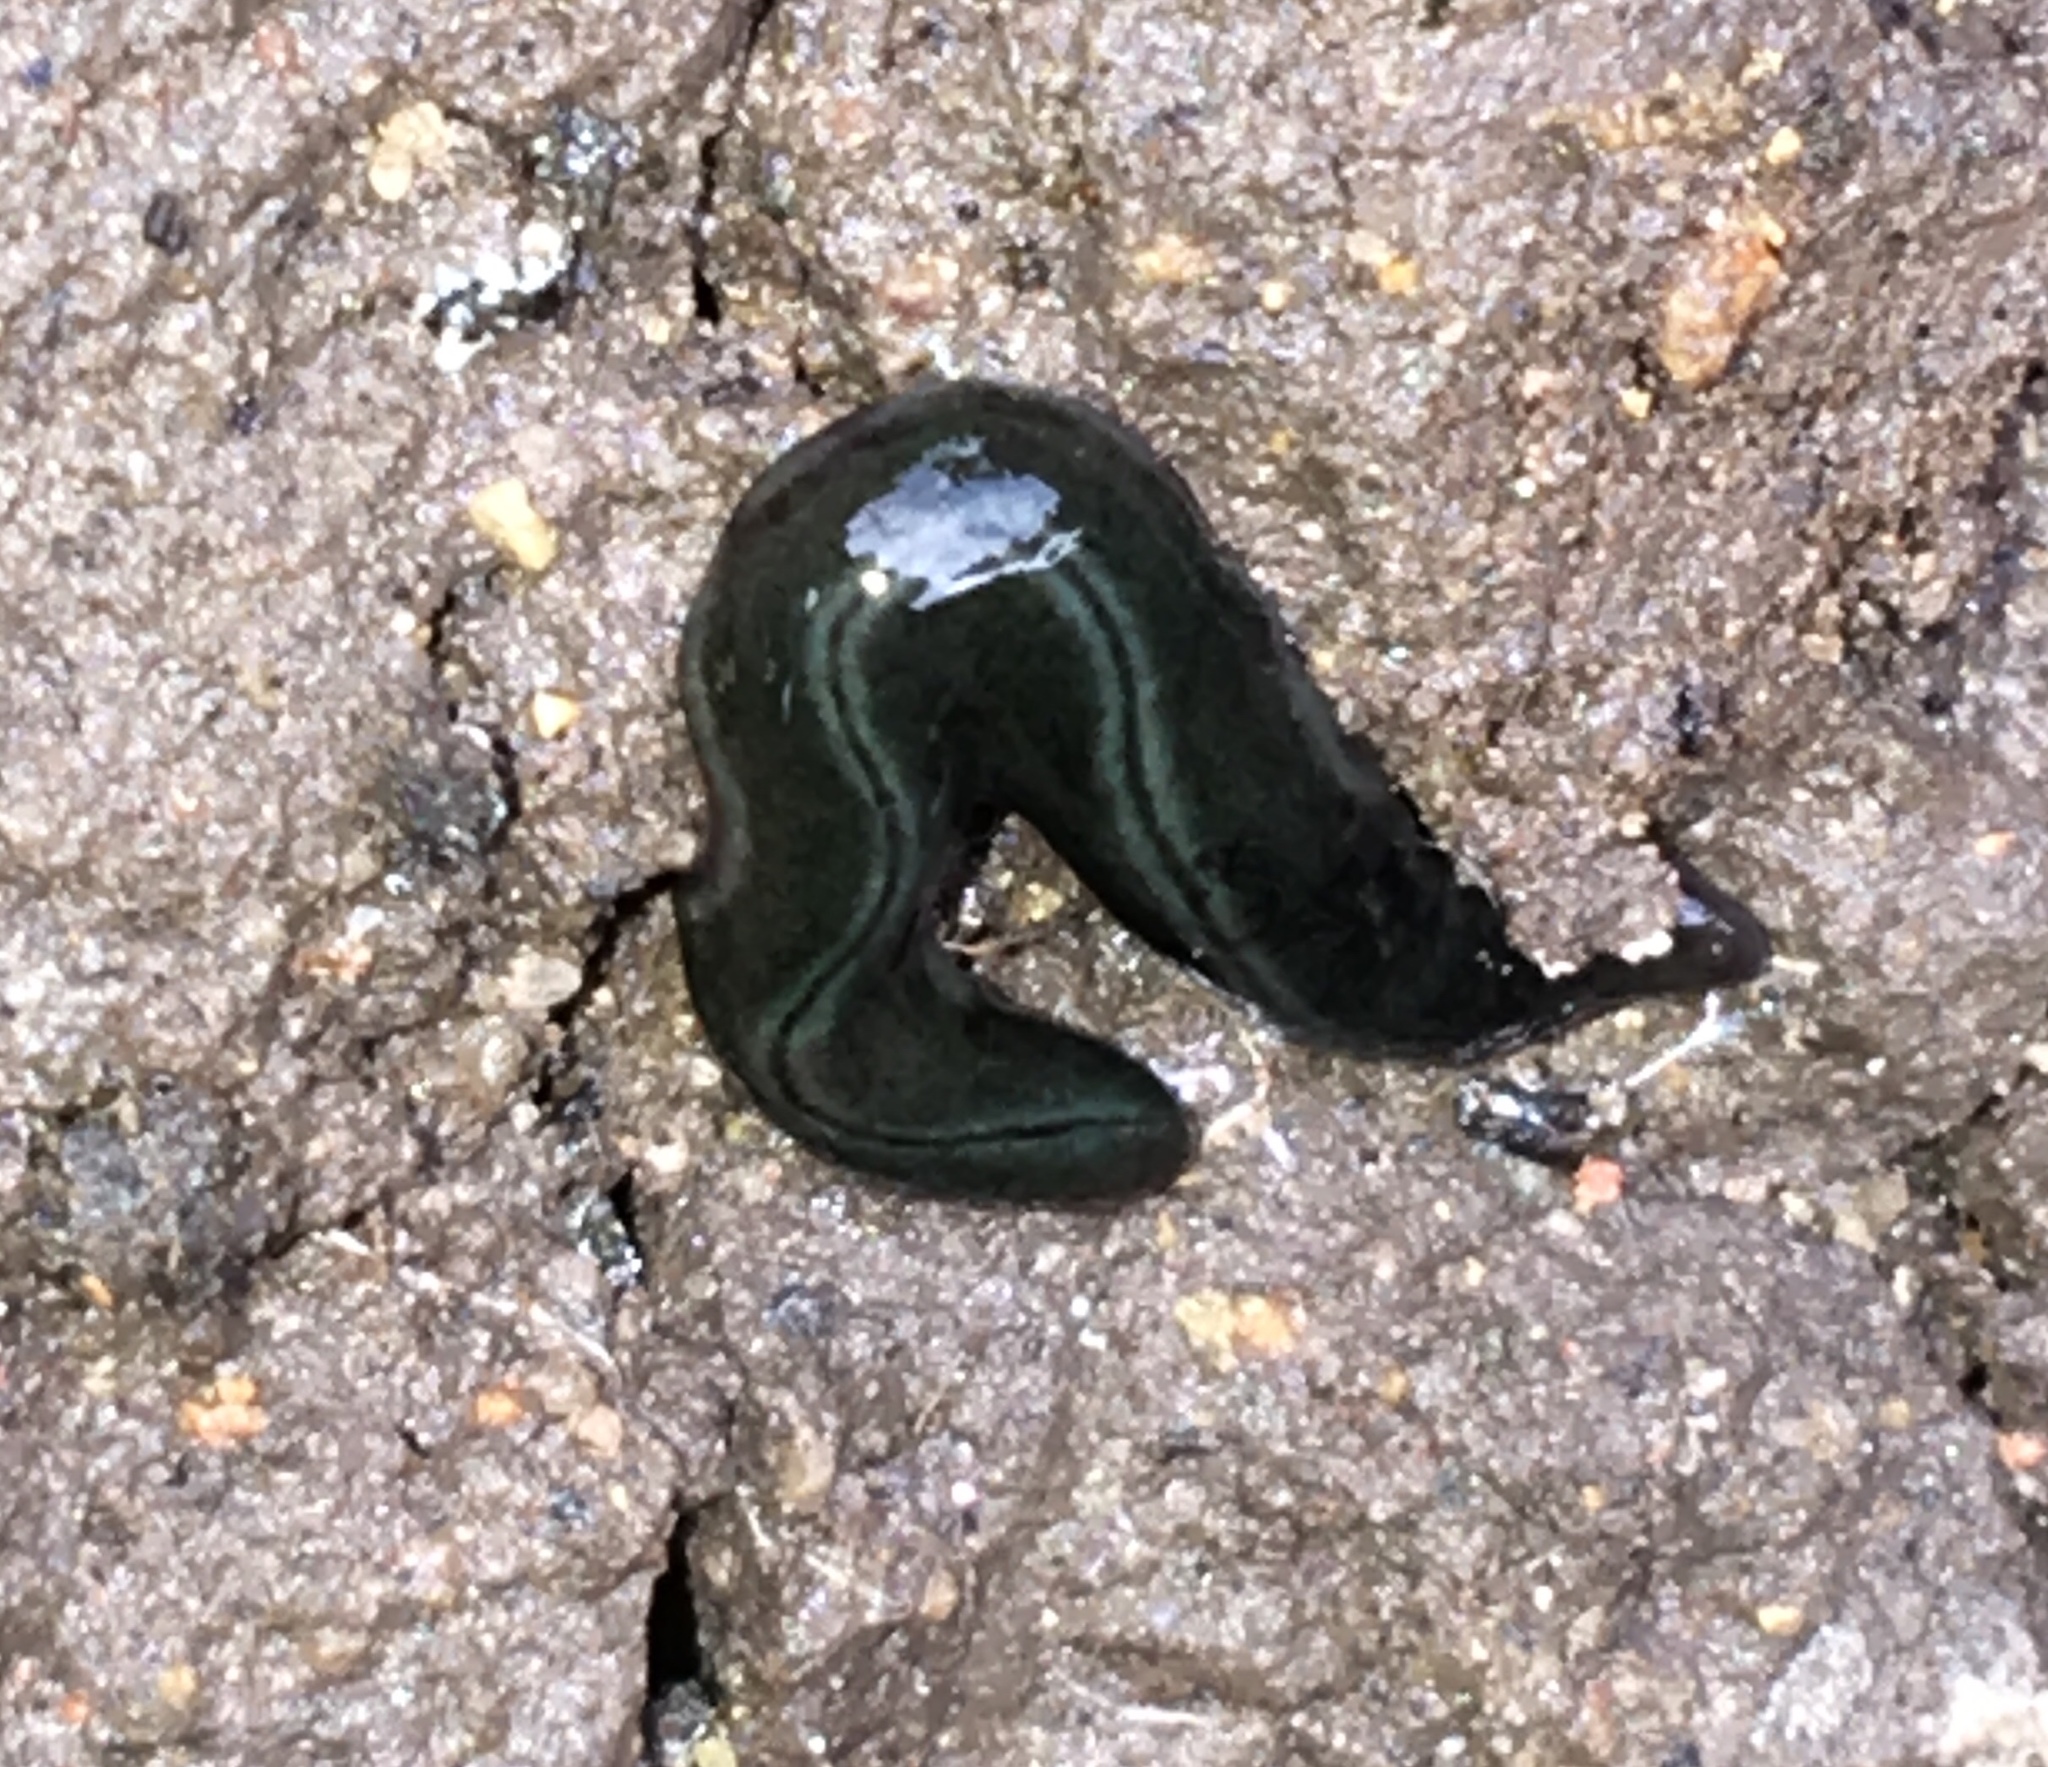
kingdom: Animalia
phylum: Platyhelminthes
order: Tricladida
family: Geoplanidae
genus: Parakontikia
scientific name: Parakontikia ventrolineata
